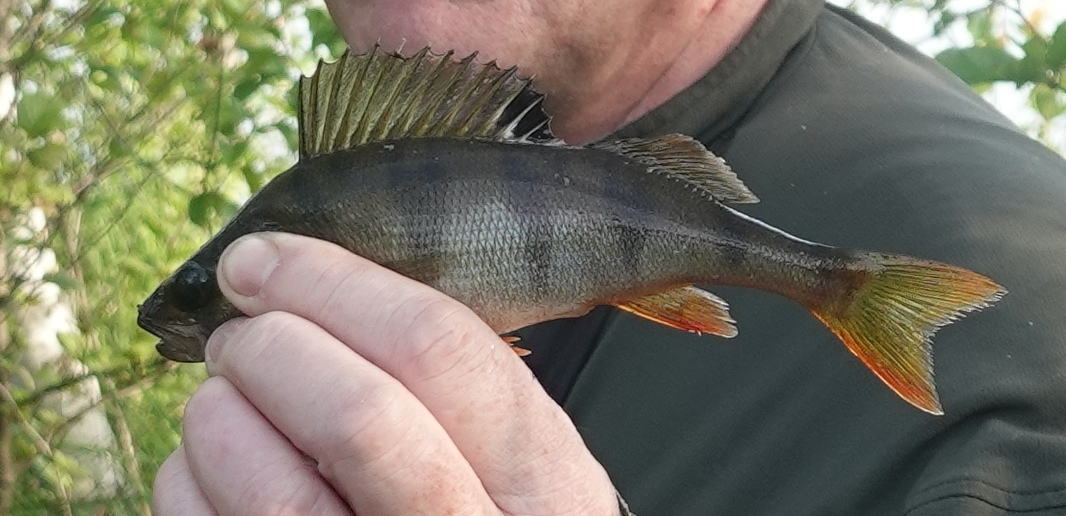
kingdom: Animalia
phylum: Chordata
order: Perciformes
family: Percidae
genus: Perca
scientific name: Perca fluviatilis
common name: Perch
